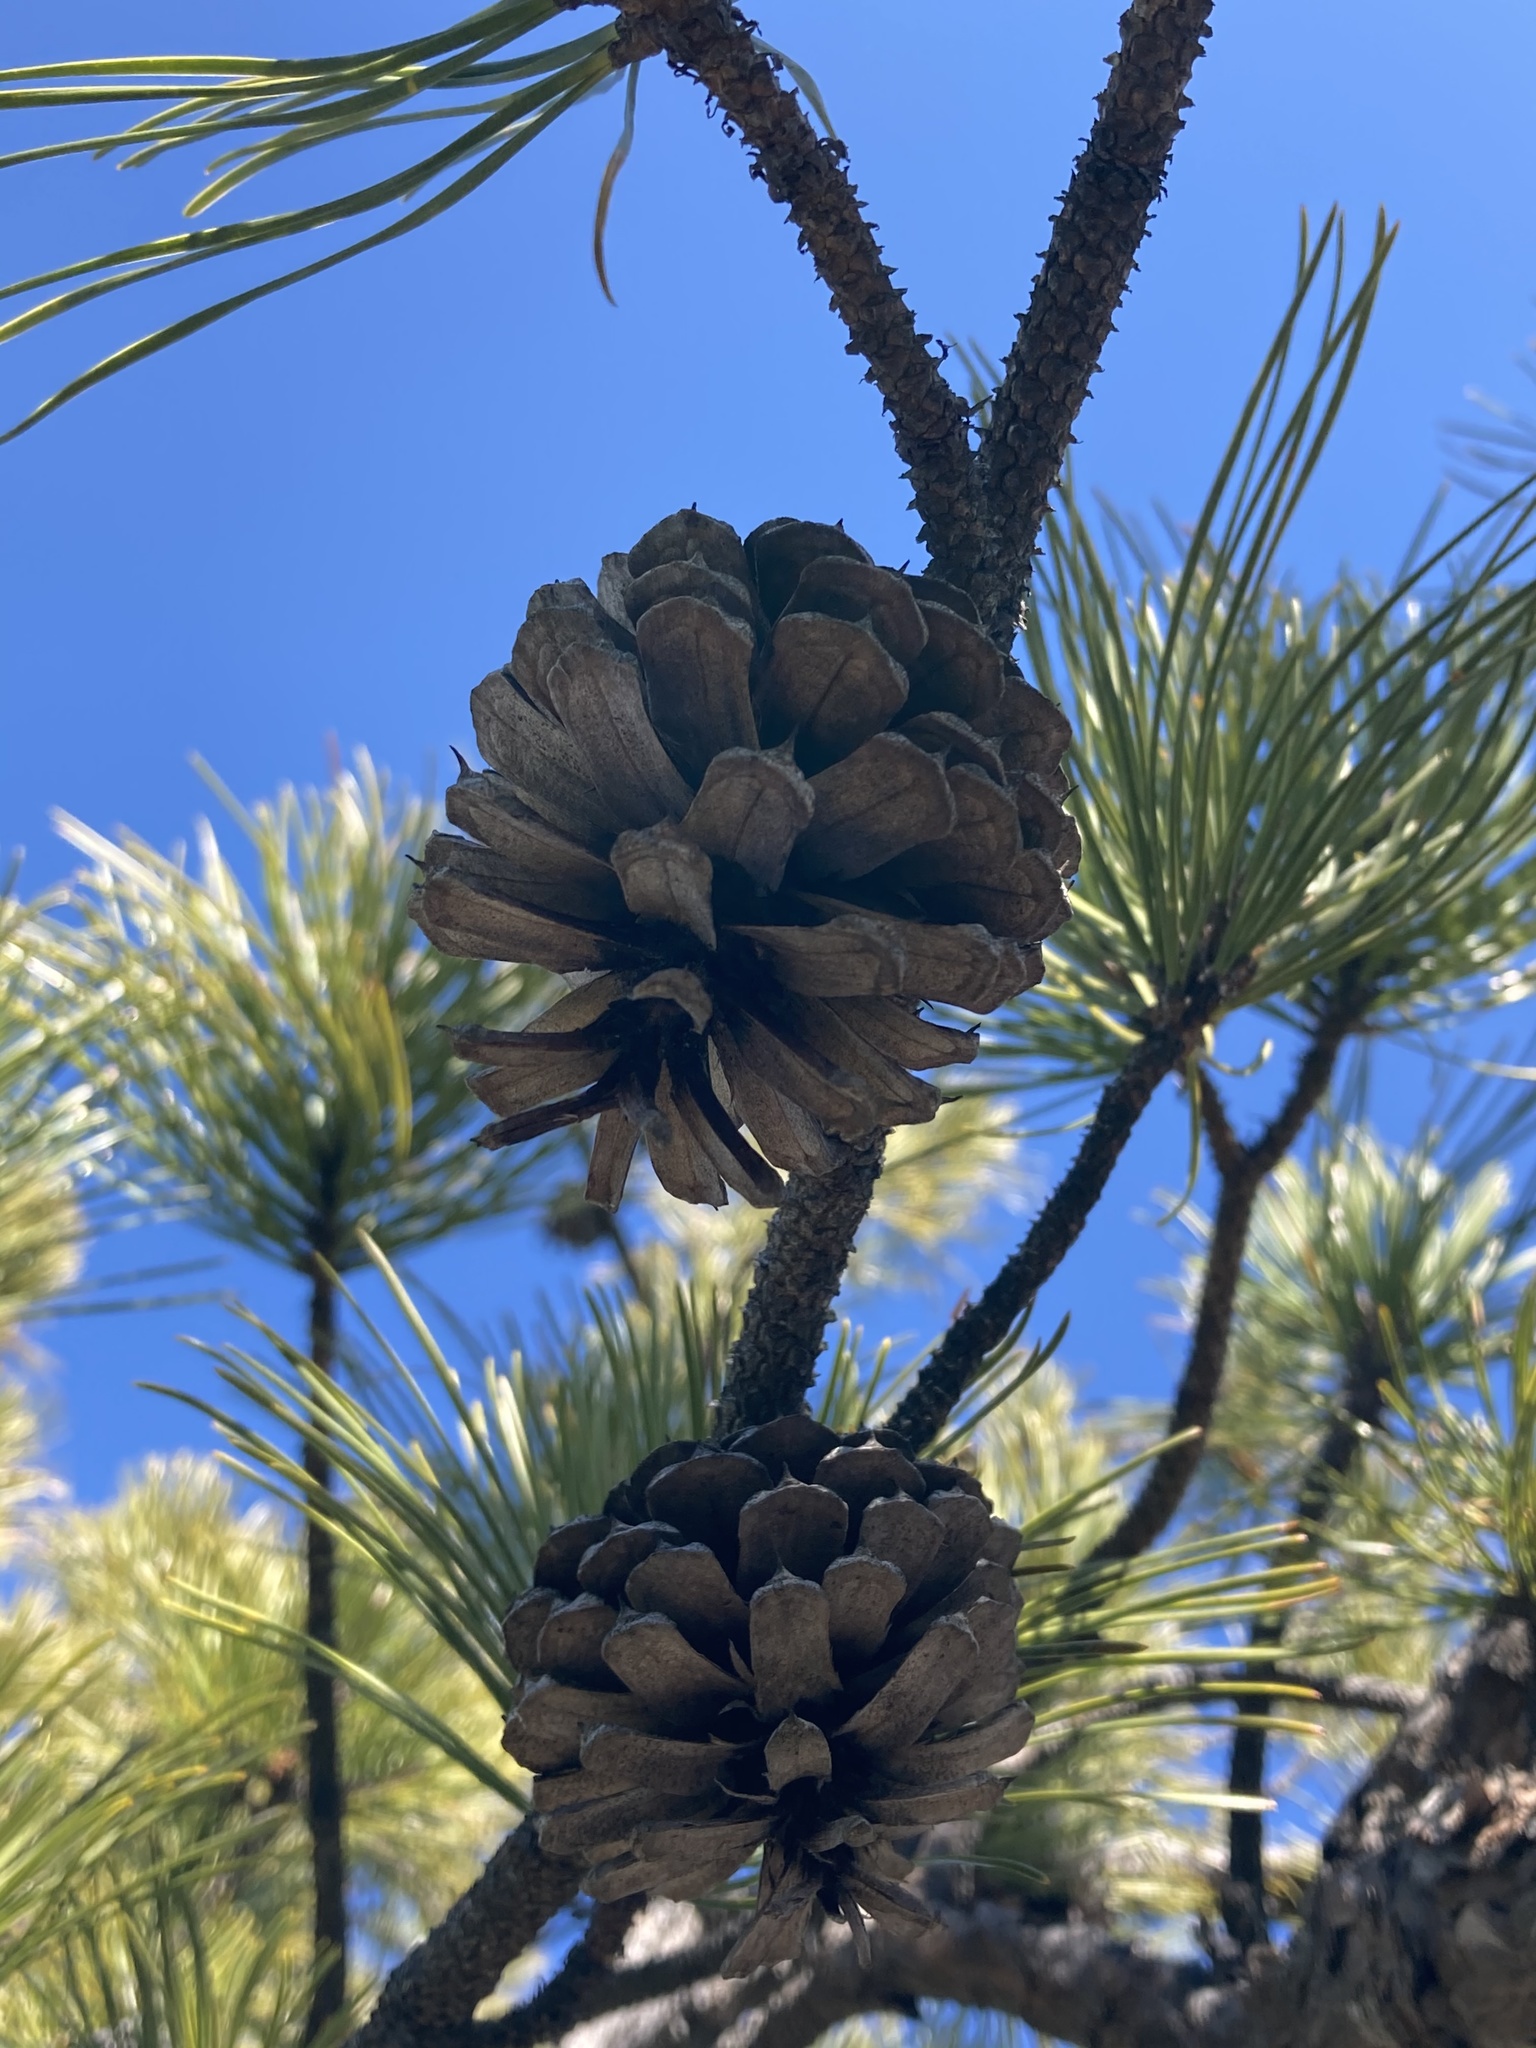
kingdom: Plantae
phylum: Tracheophyta
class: Pinopsida
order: Pinales
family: Pinaceae
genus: Pinus
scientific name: Pinus rigida
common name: Pitch pine
